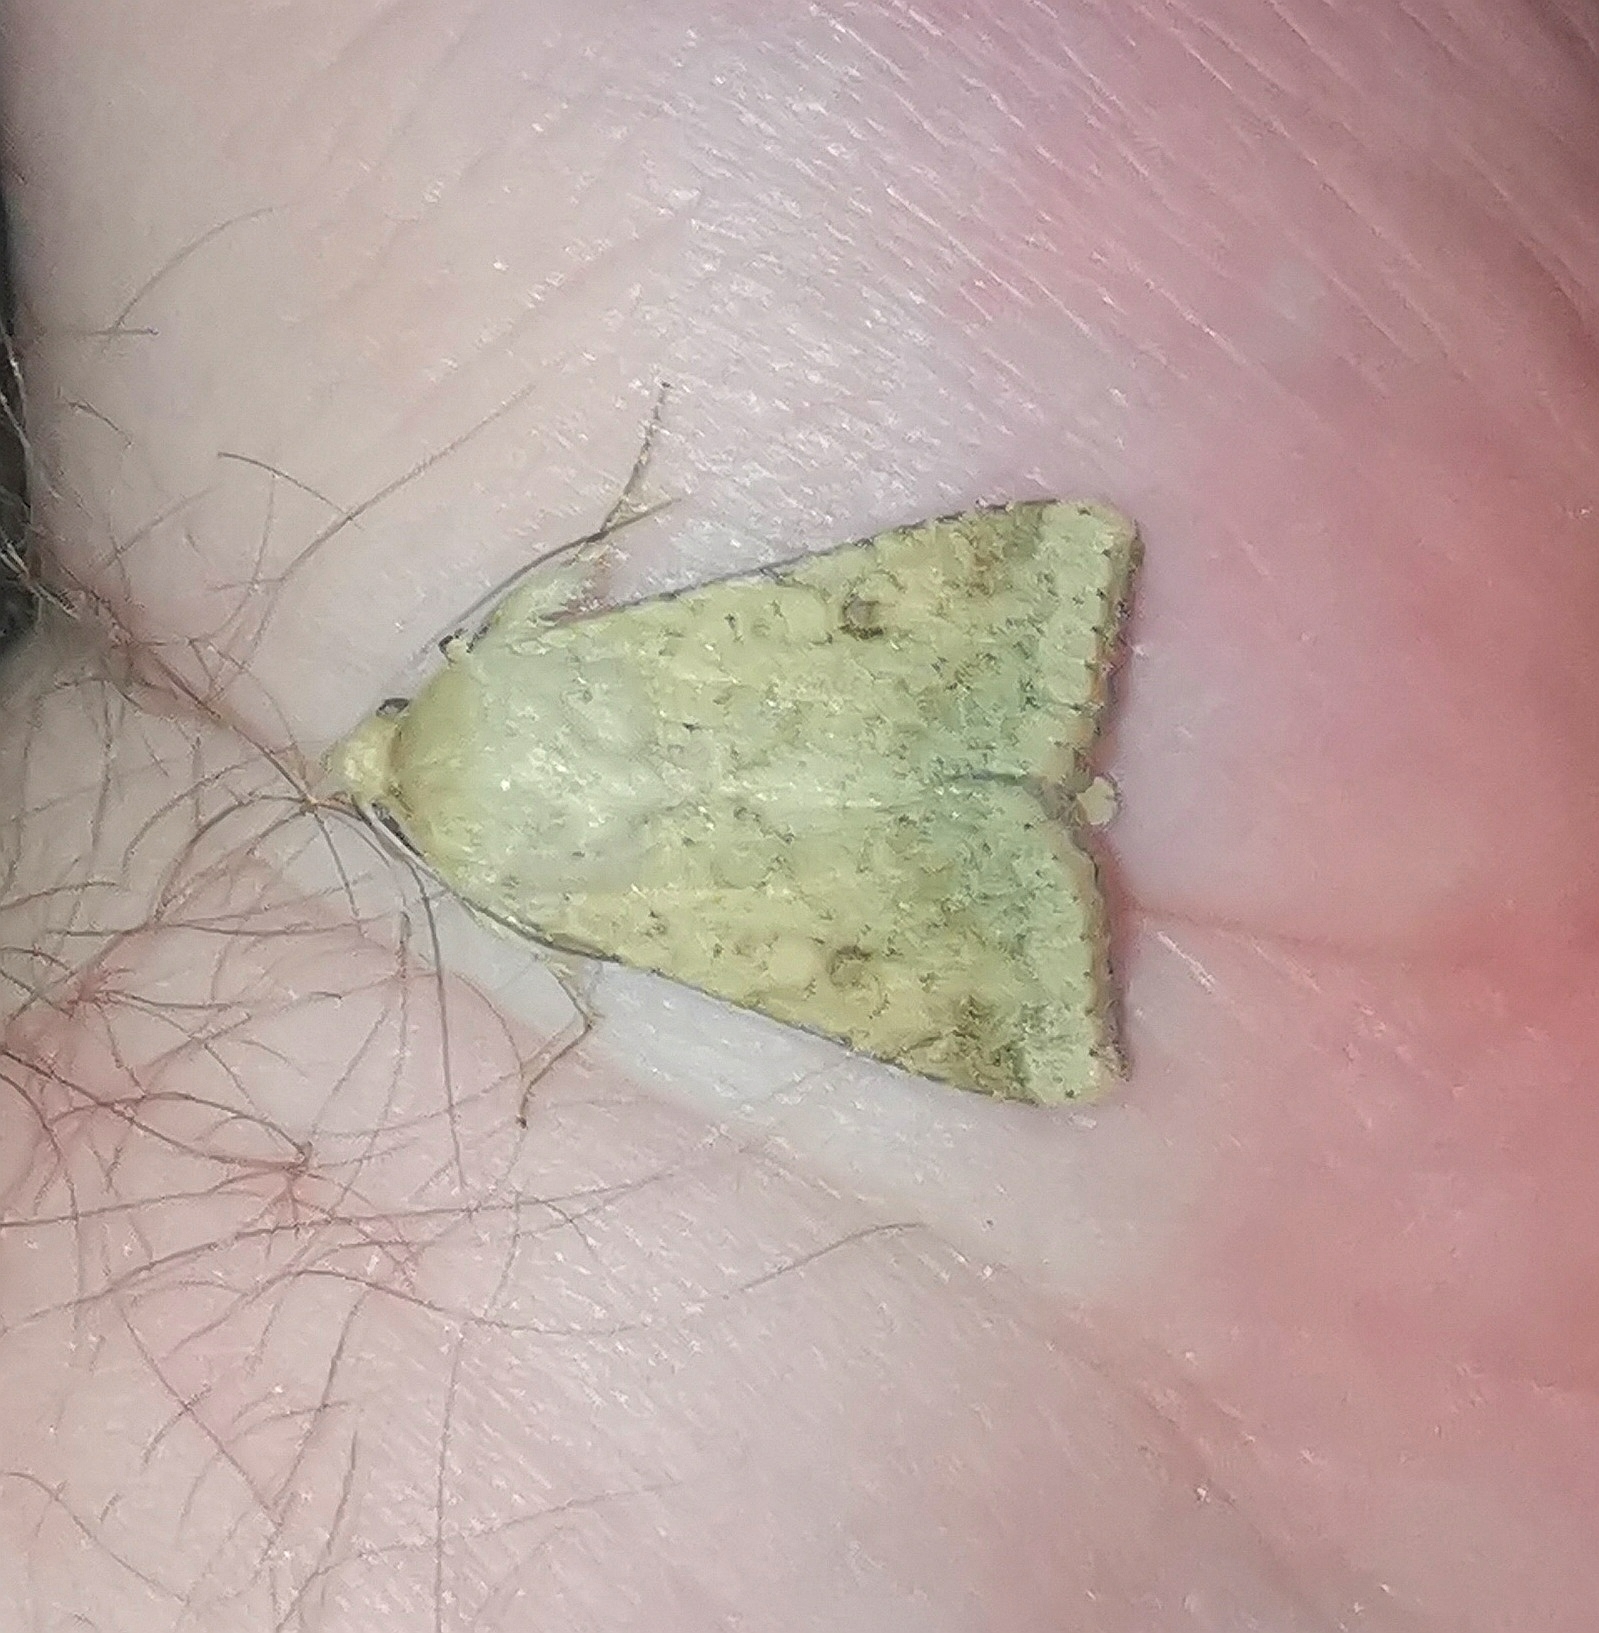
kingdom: Animalia
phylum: Arthropoda
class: Insecta
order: Lepidoptera
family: Noctuidae
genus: Helicoverpa
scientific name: Helicoverpa armigera
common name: Cotton bollworm
